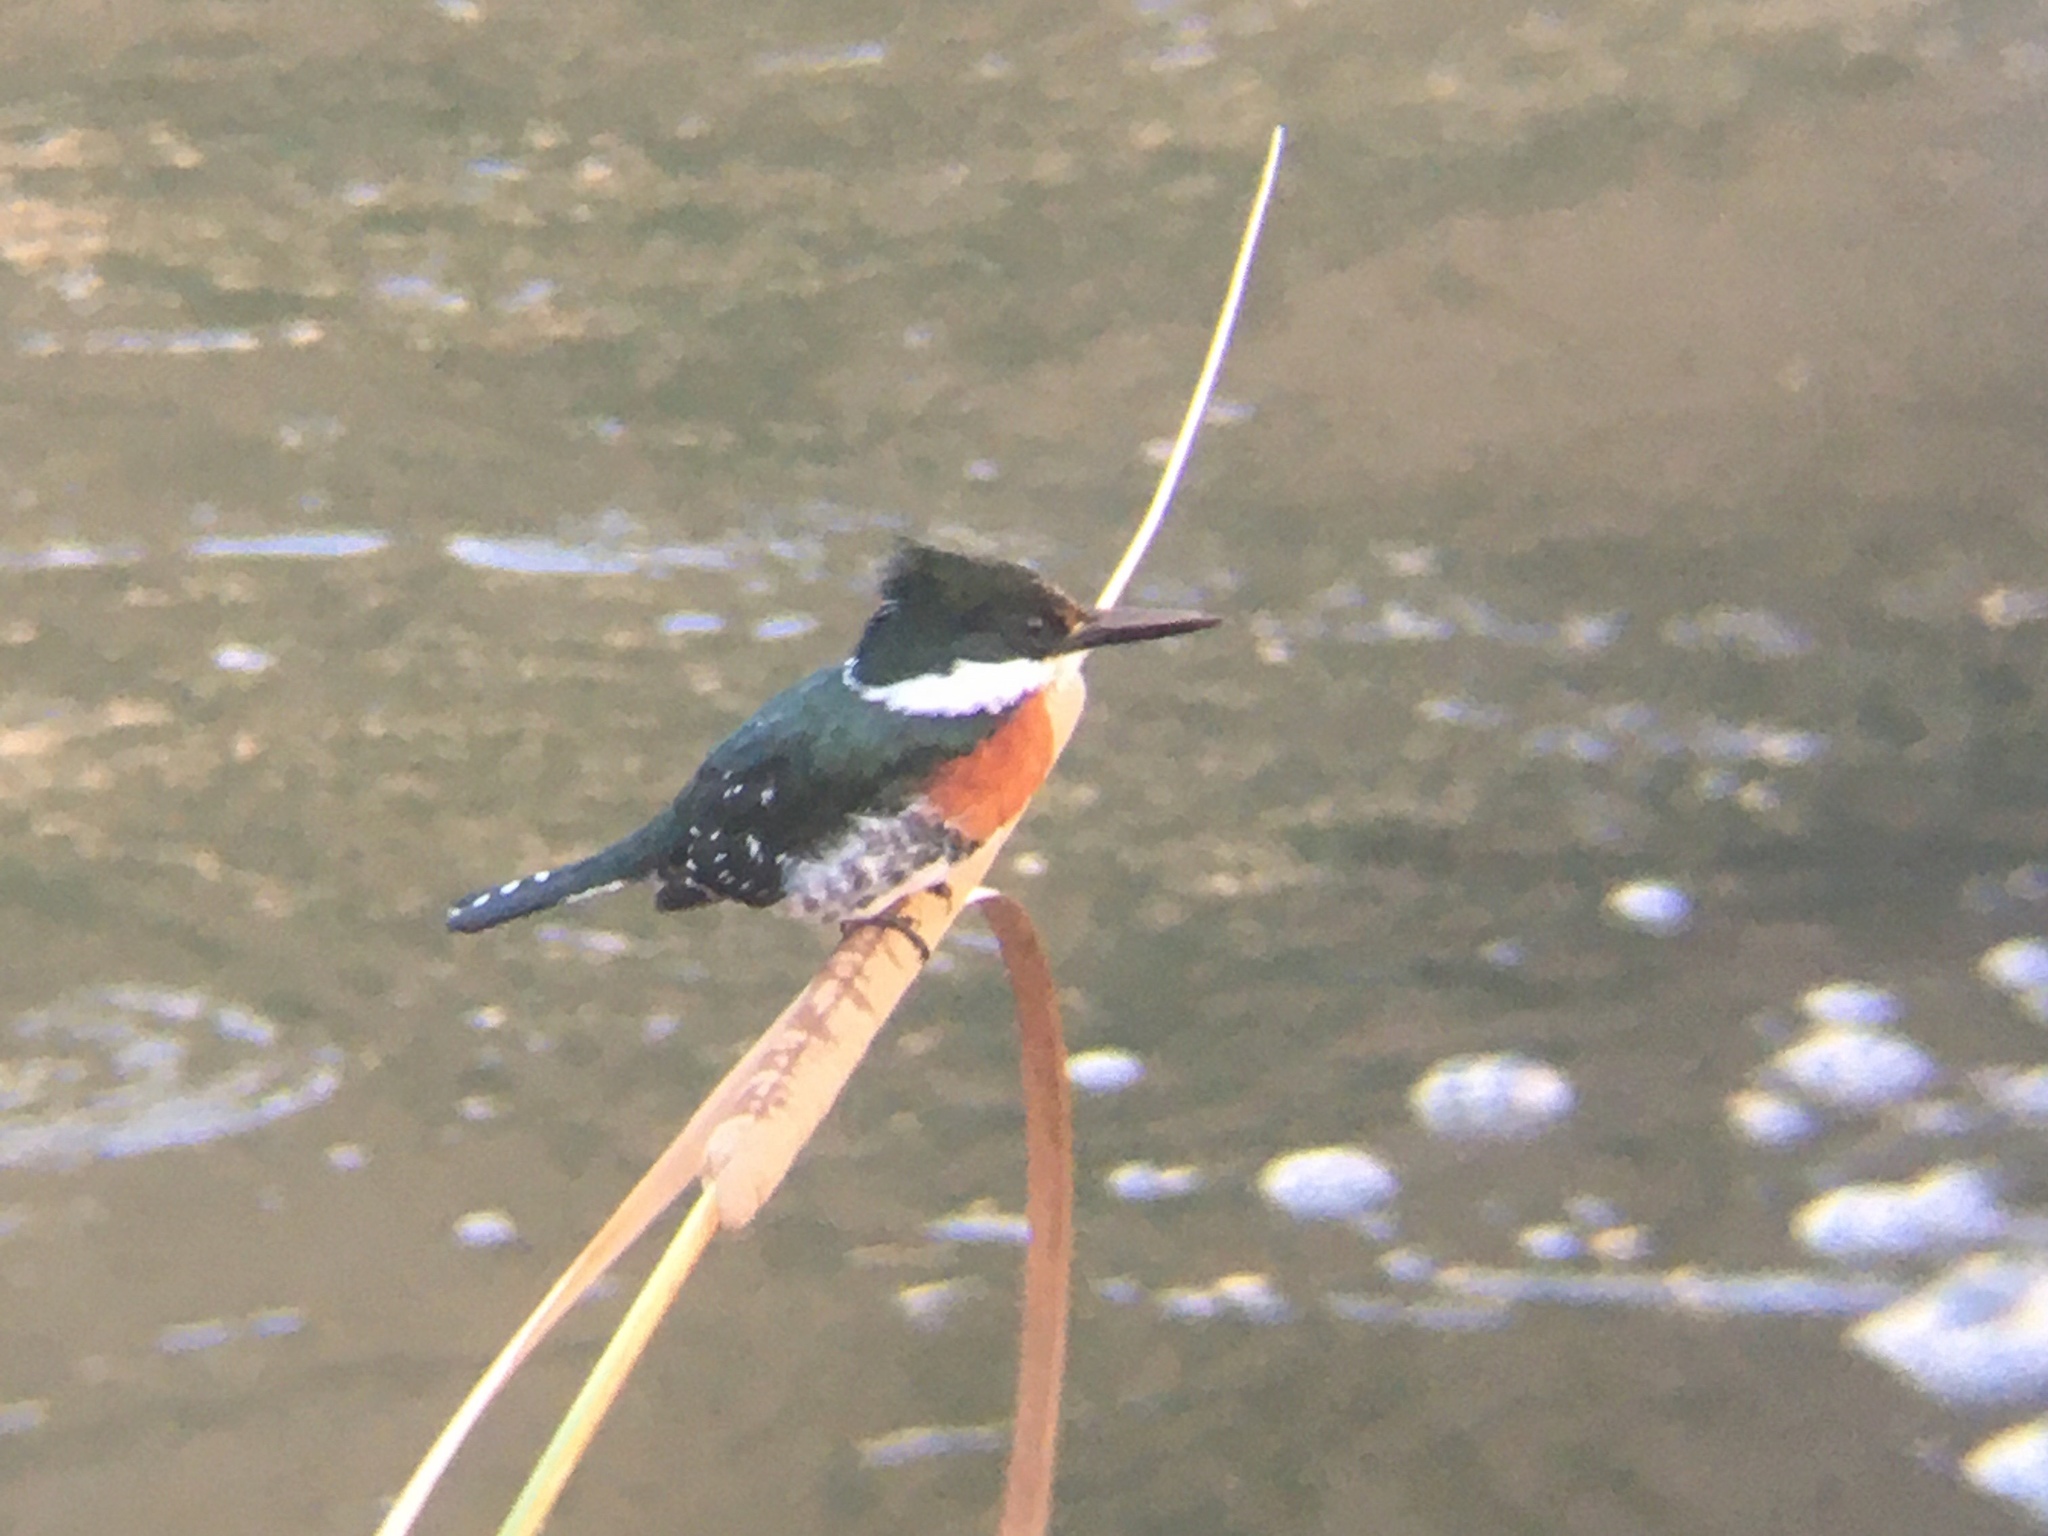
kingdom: Animalia
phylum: Chordata
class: Aves
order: Coraciiformes
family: Alcedinidae
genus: Chloroceryle
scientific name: Chloroceryle americana
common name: Green kingfisher
